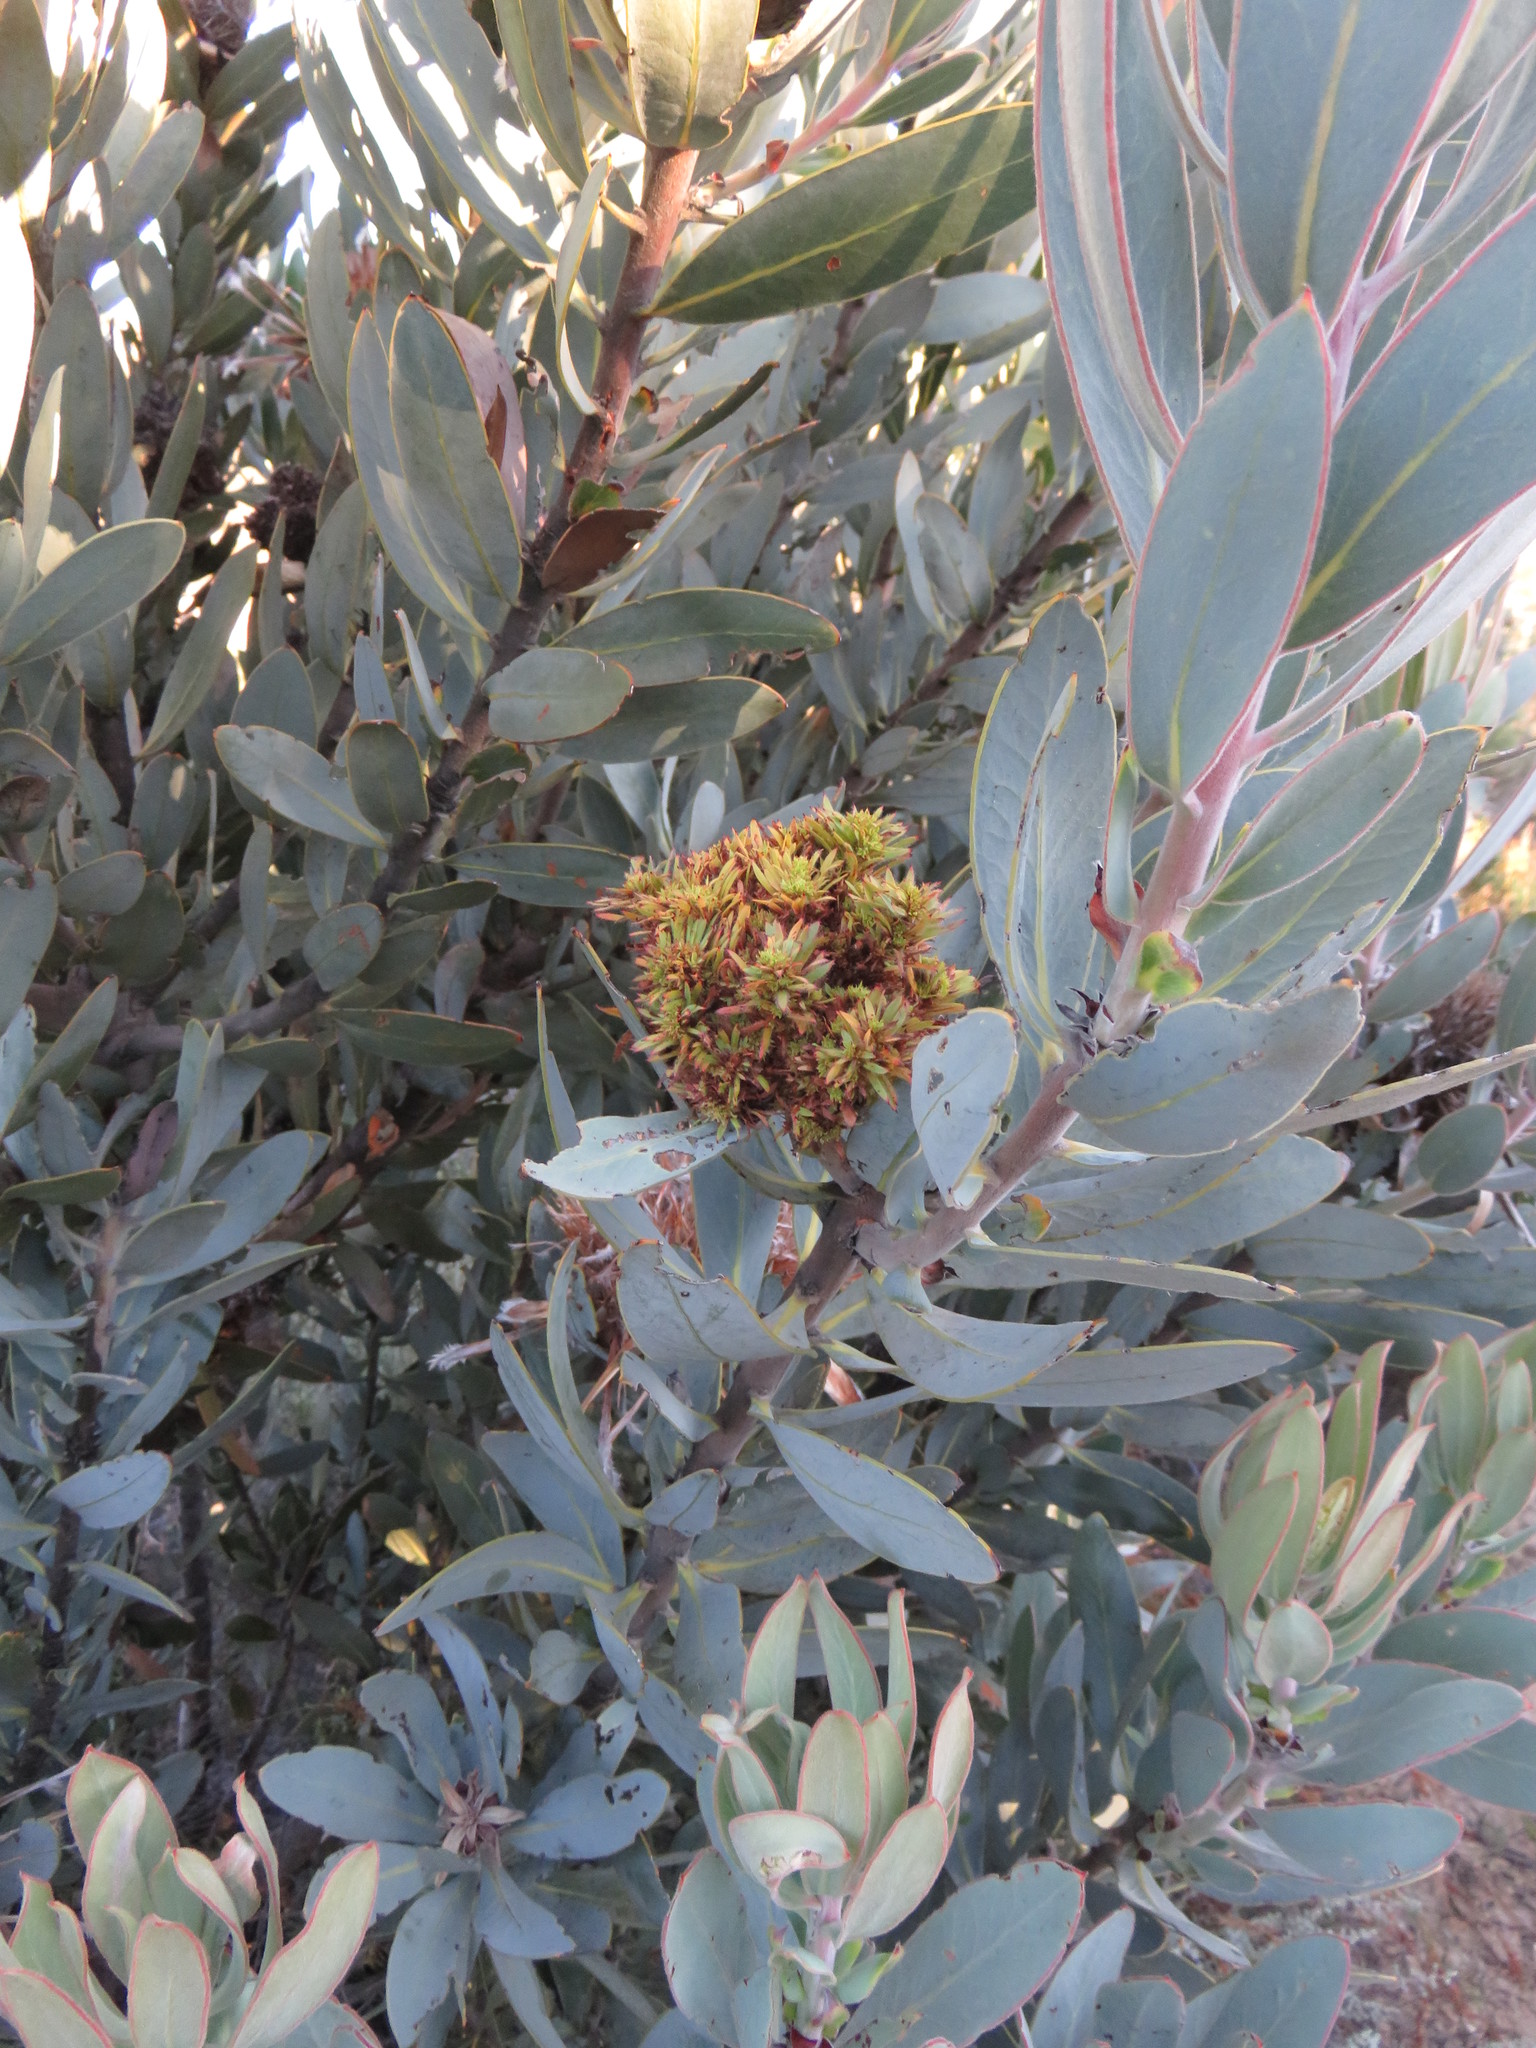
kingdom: Bacteria
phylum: Firmicutes
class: Bacilli
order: Acholeplasmatales
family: Acholeplasmataceae
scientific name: Acholeplasmataceae
